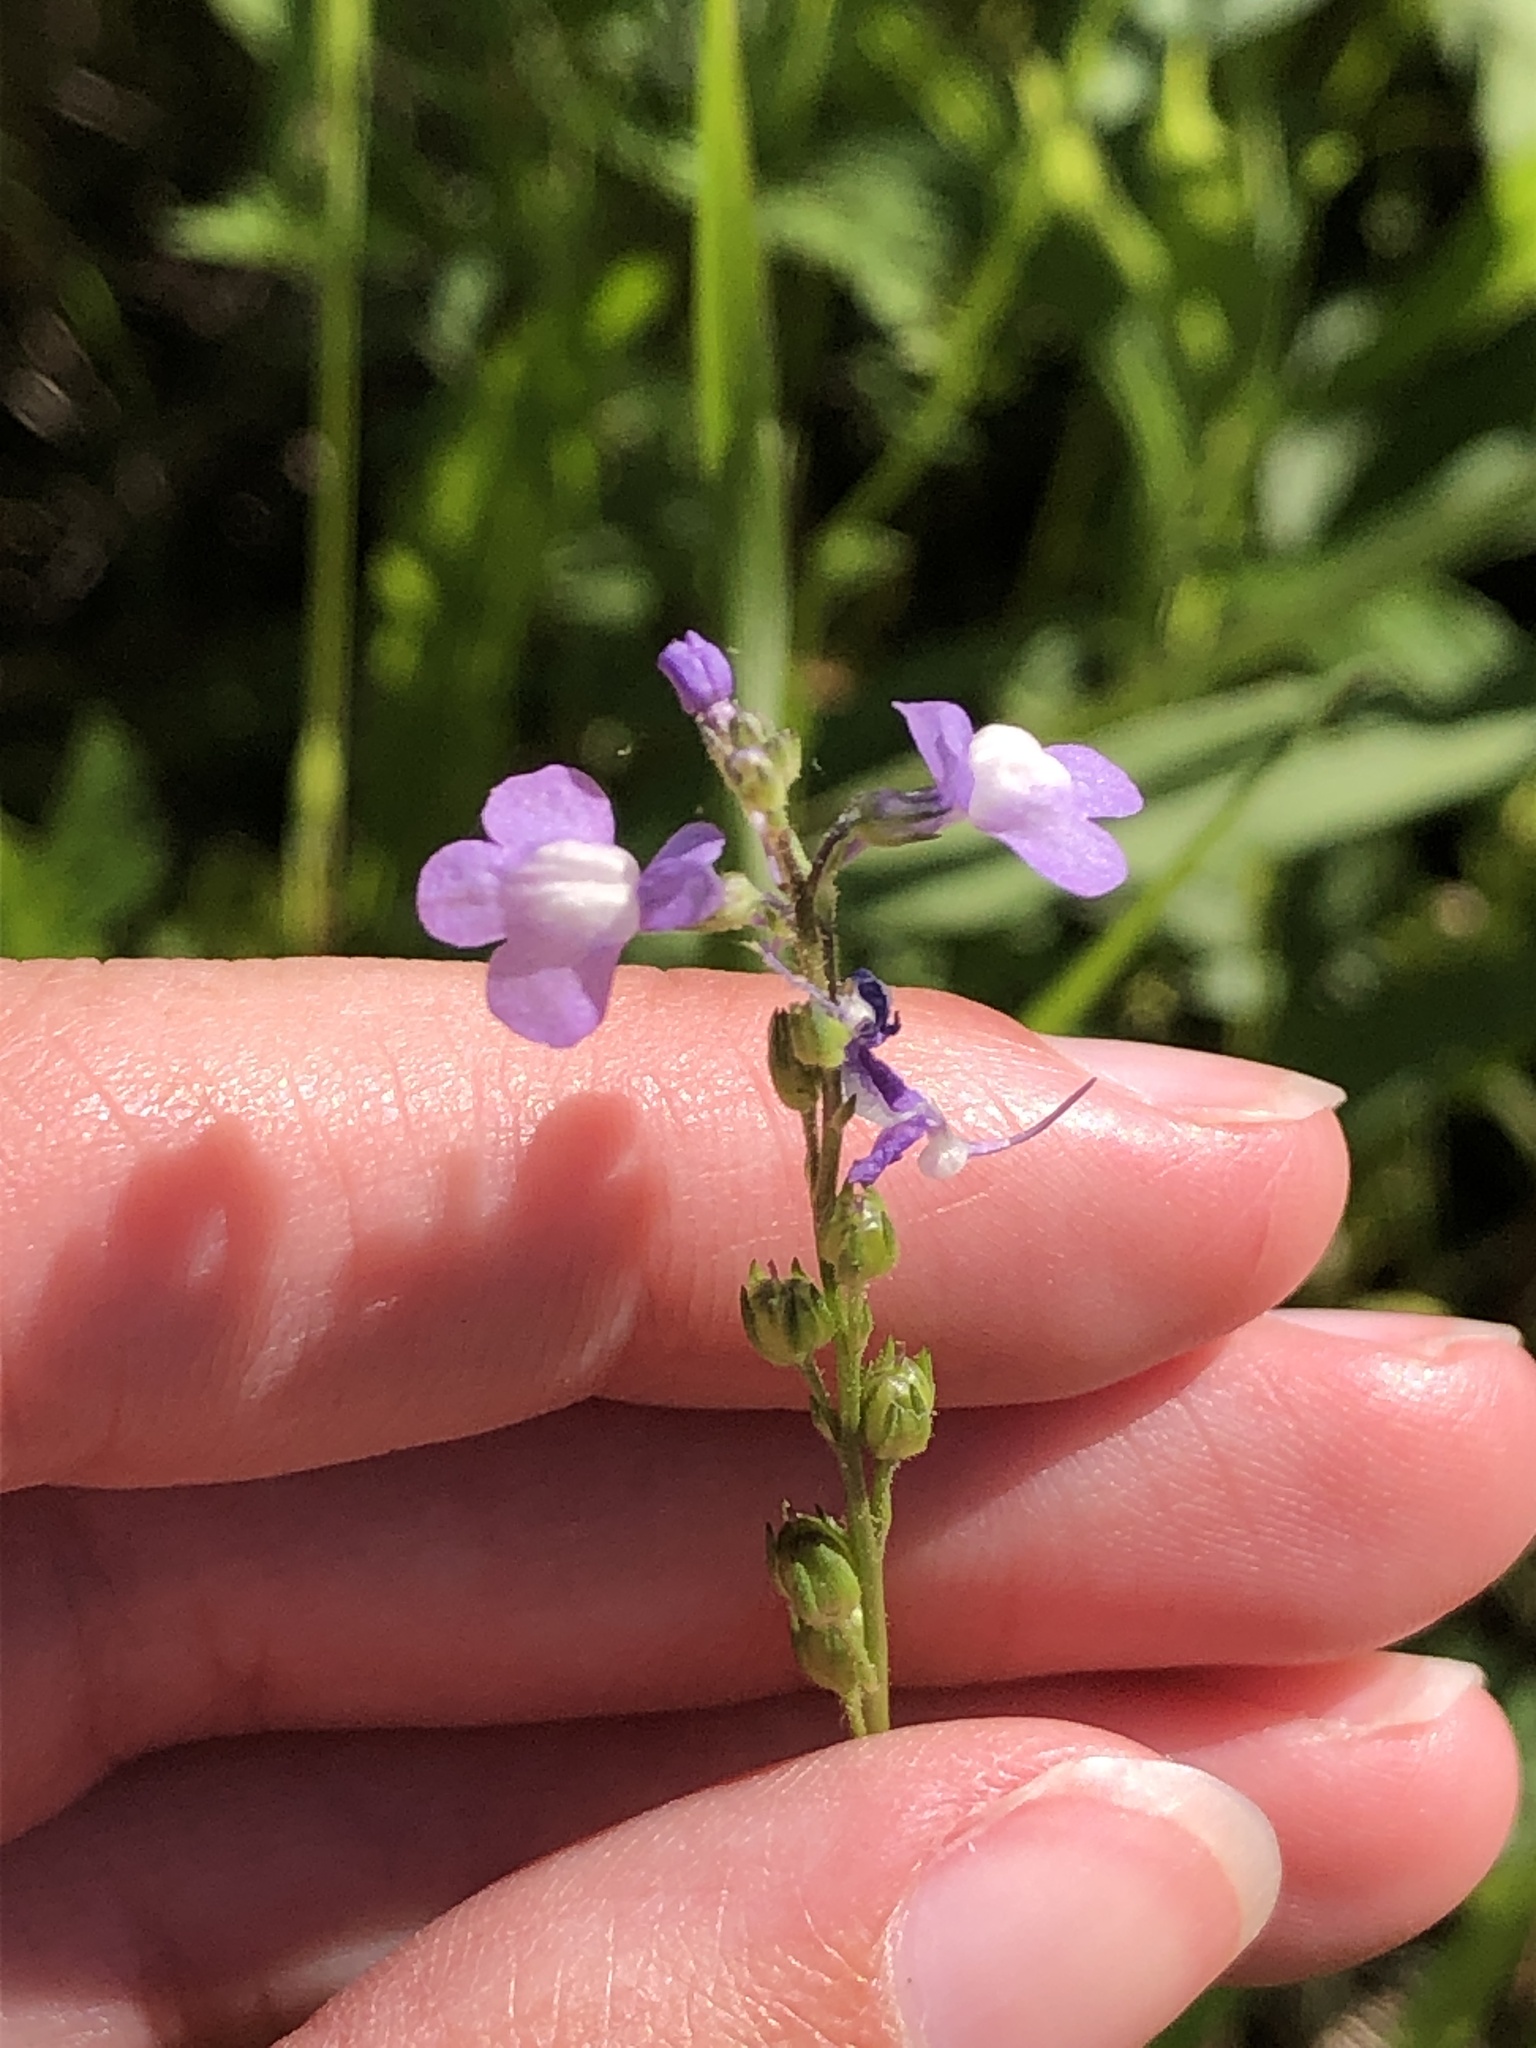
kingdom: Plantae
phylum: Tracheophyta
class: Magnoliopsida
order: Lamiales
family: Plantaginaceae
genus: Nuttallanthus
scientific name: Nuttallanthus canadensis
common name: Blue toadflax
